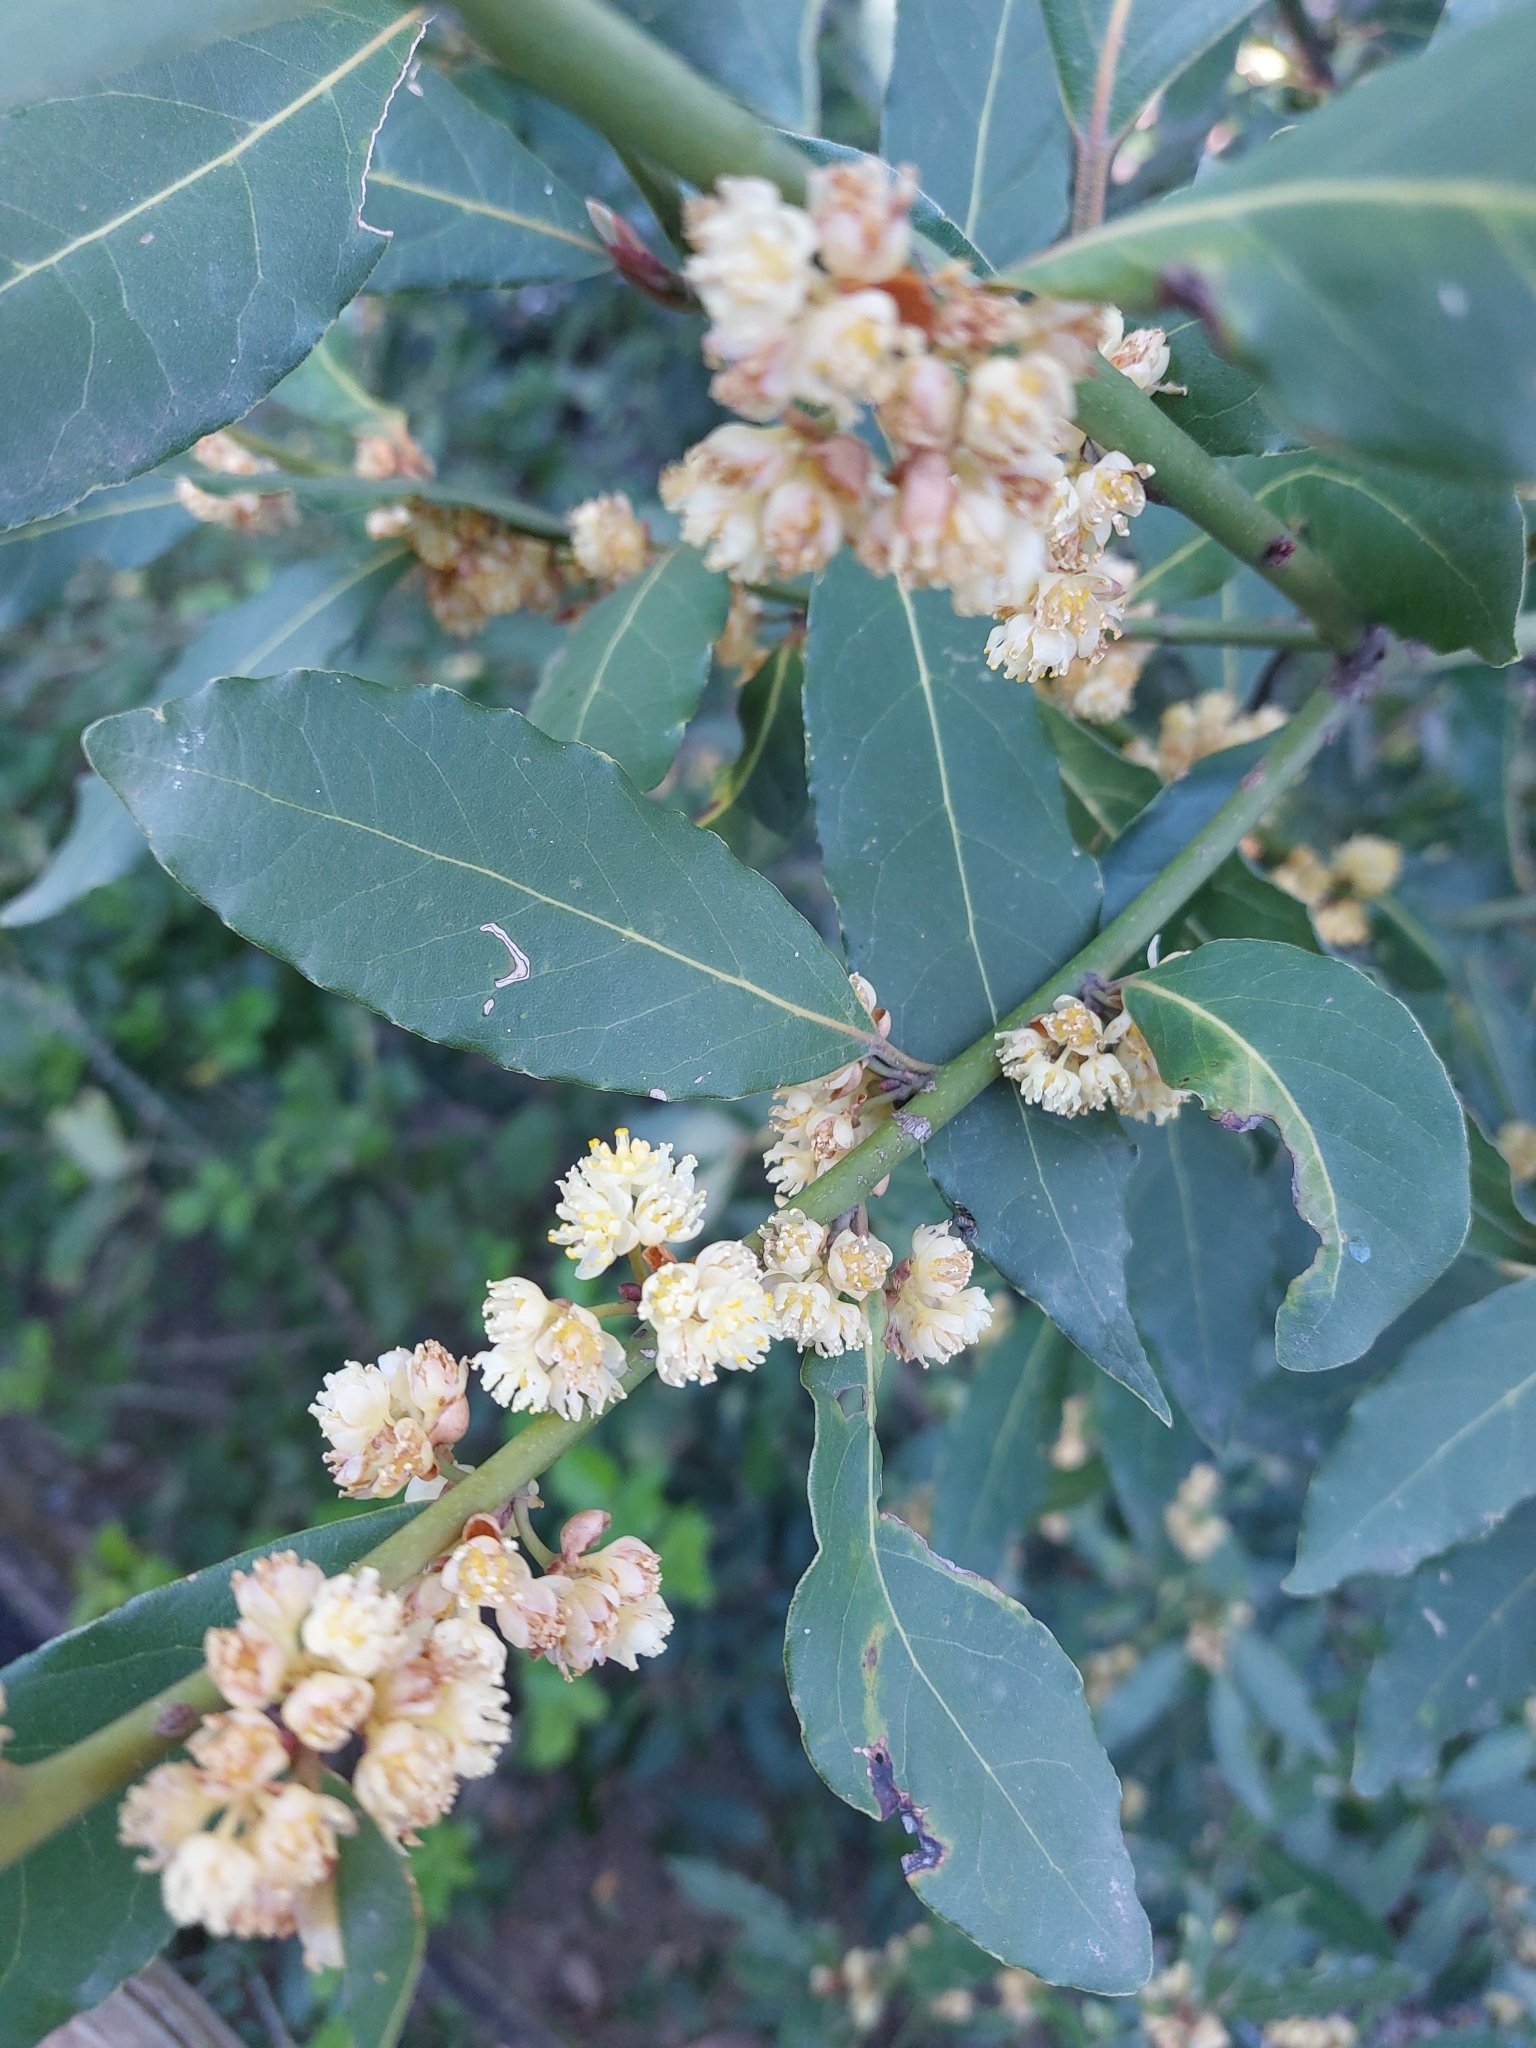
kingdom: Plantae
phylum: Tracheophyta
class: Magnoliopsida
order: Laurales
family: Lauraceae
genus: Laurus
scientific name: Laurus nobilis
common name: Bay
